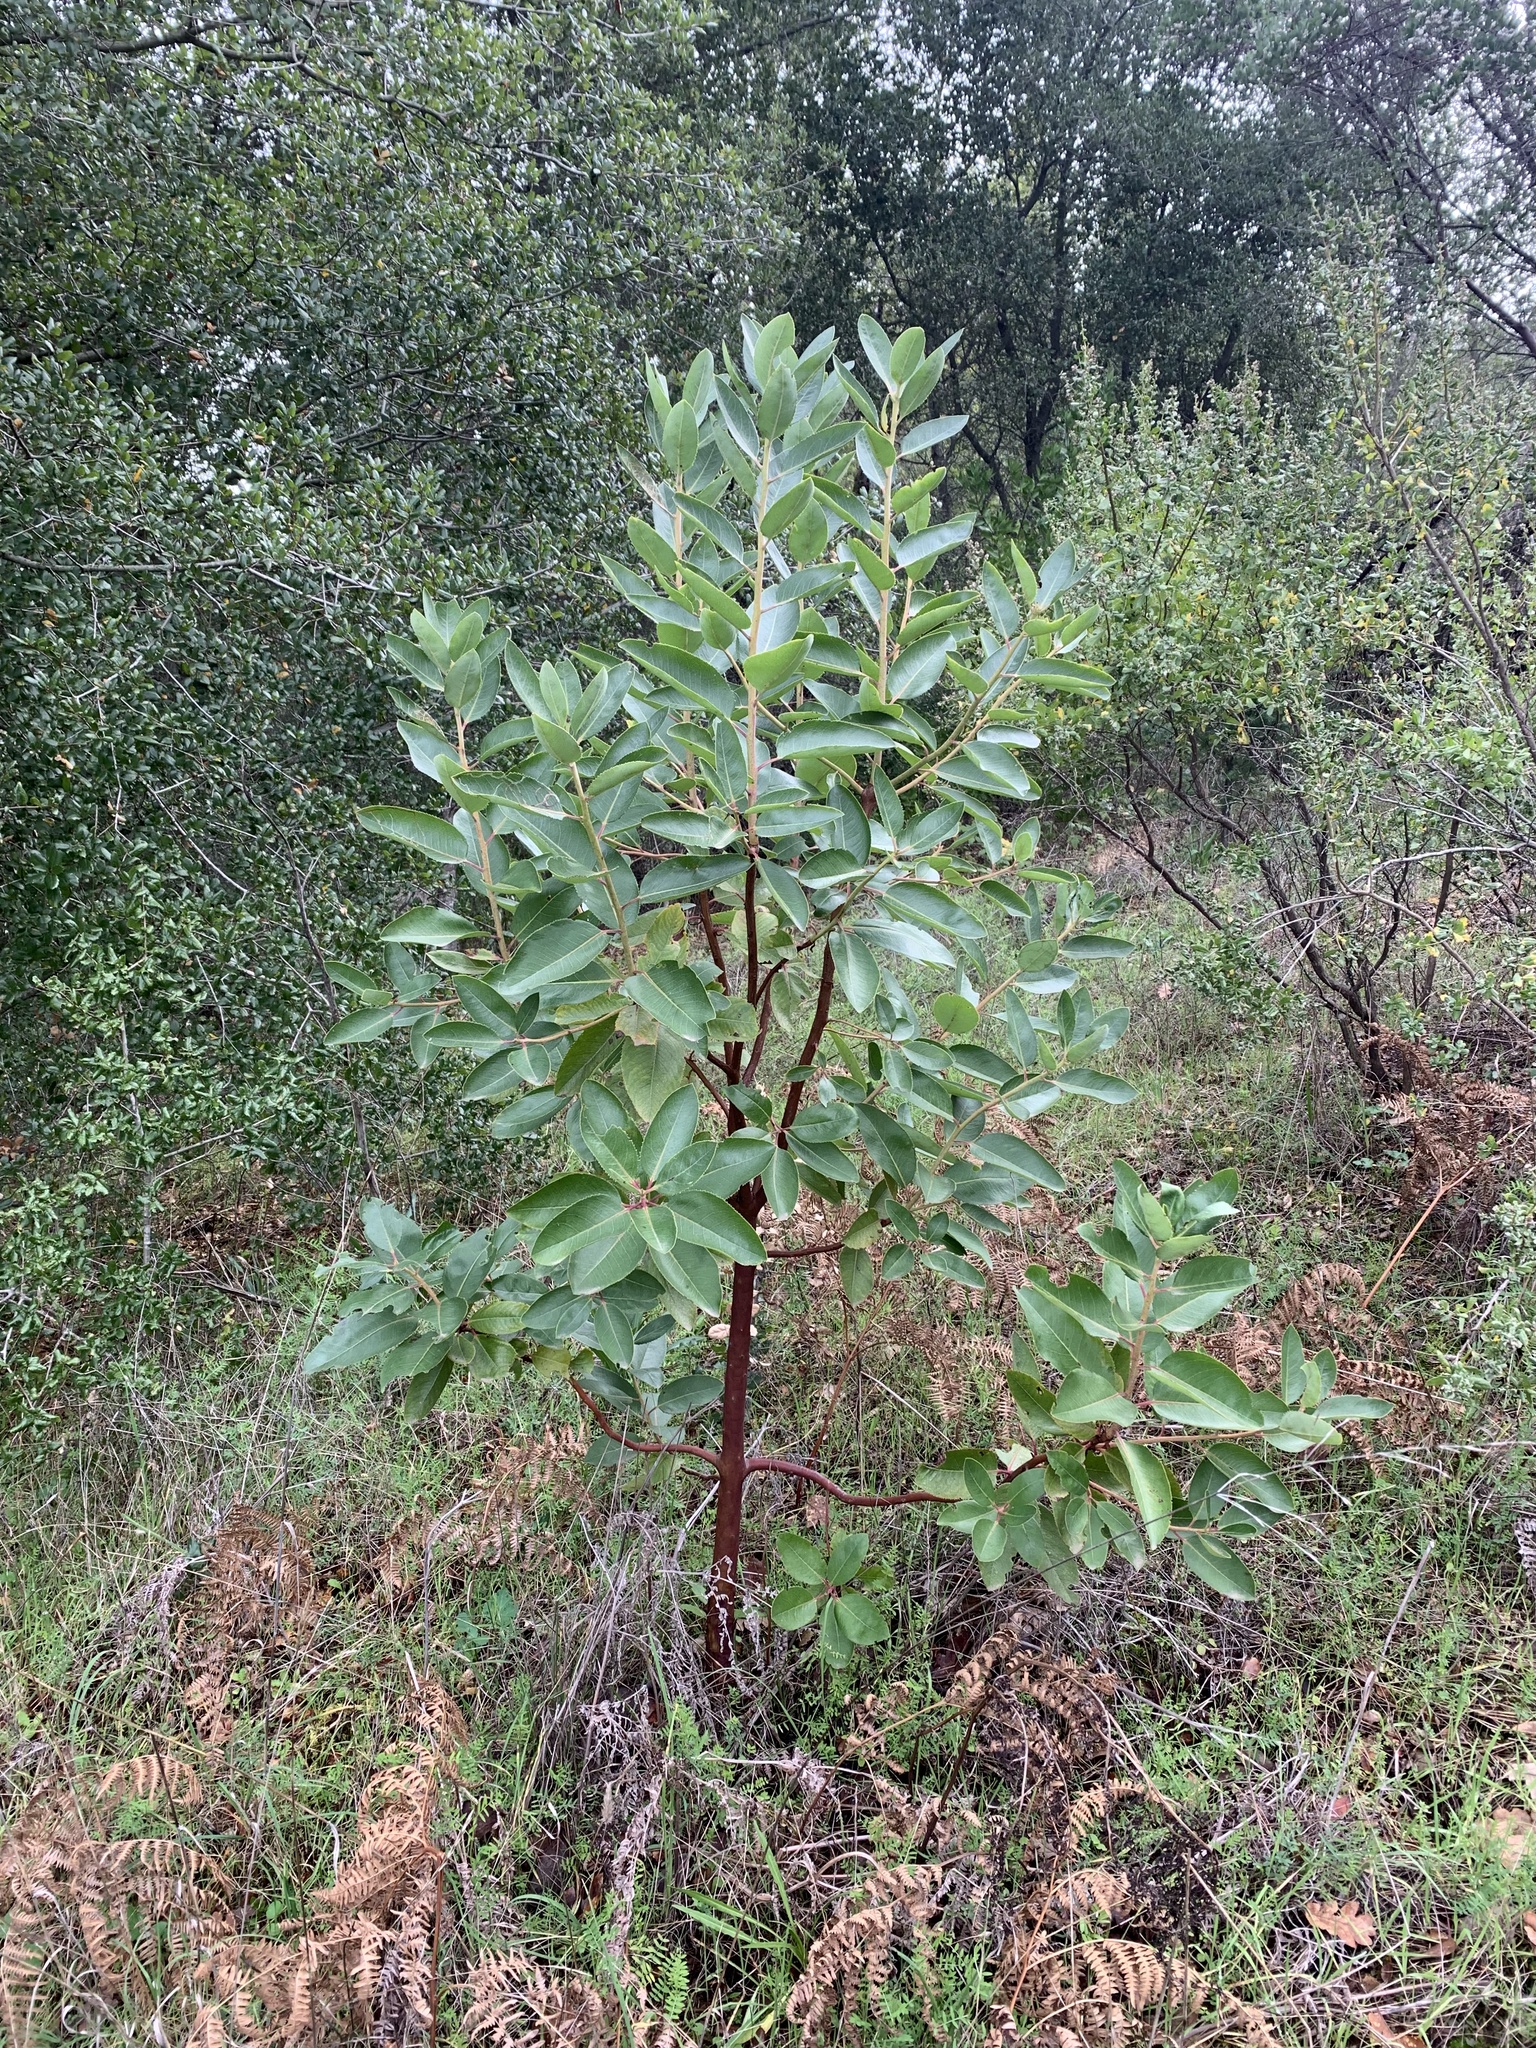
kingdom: Plantae
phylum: Tracheophyta
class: Magnoliopsida
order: Ericales
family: Ericaceae
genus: Arbutus
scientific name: Arbutus menziesii
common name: Pacific madrone
